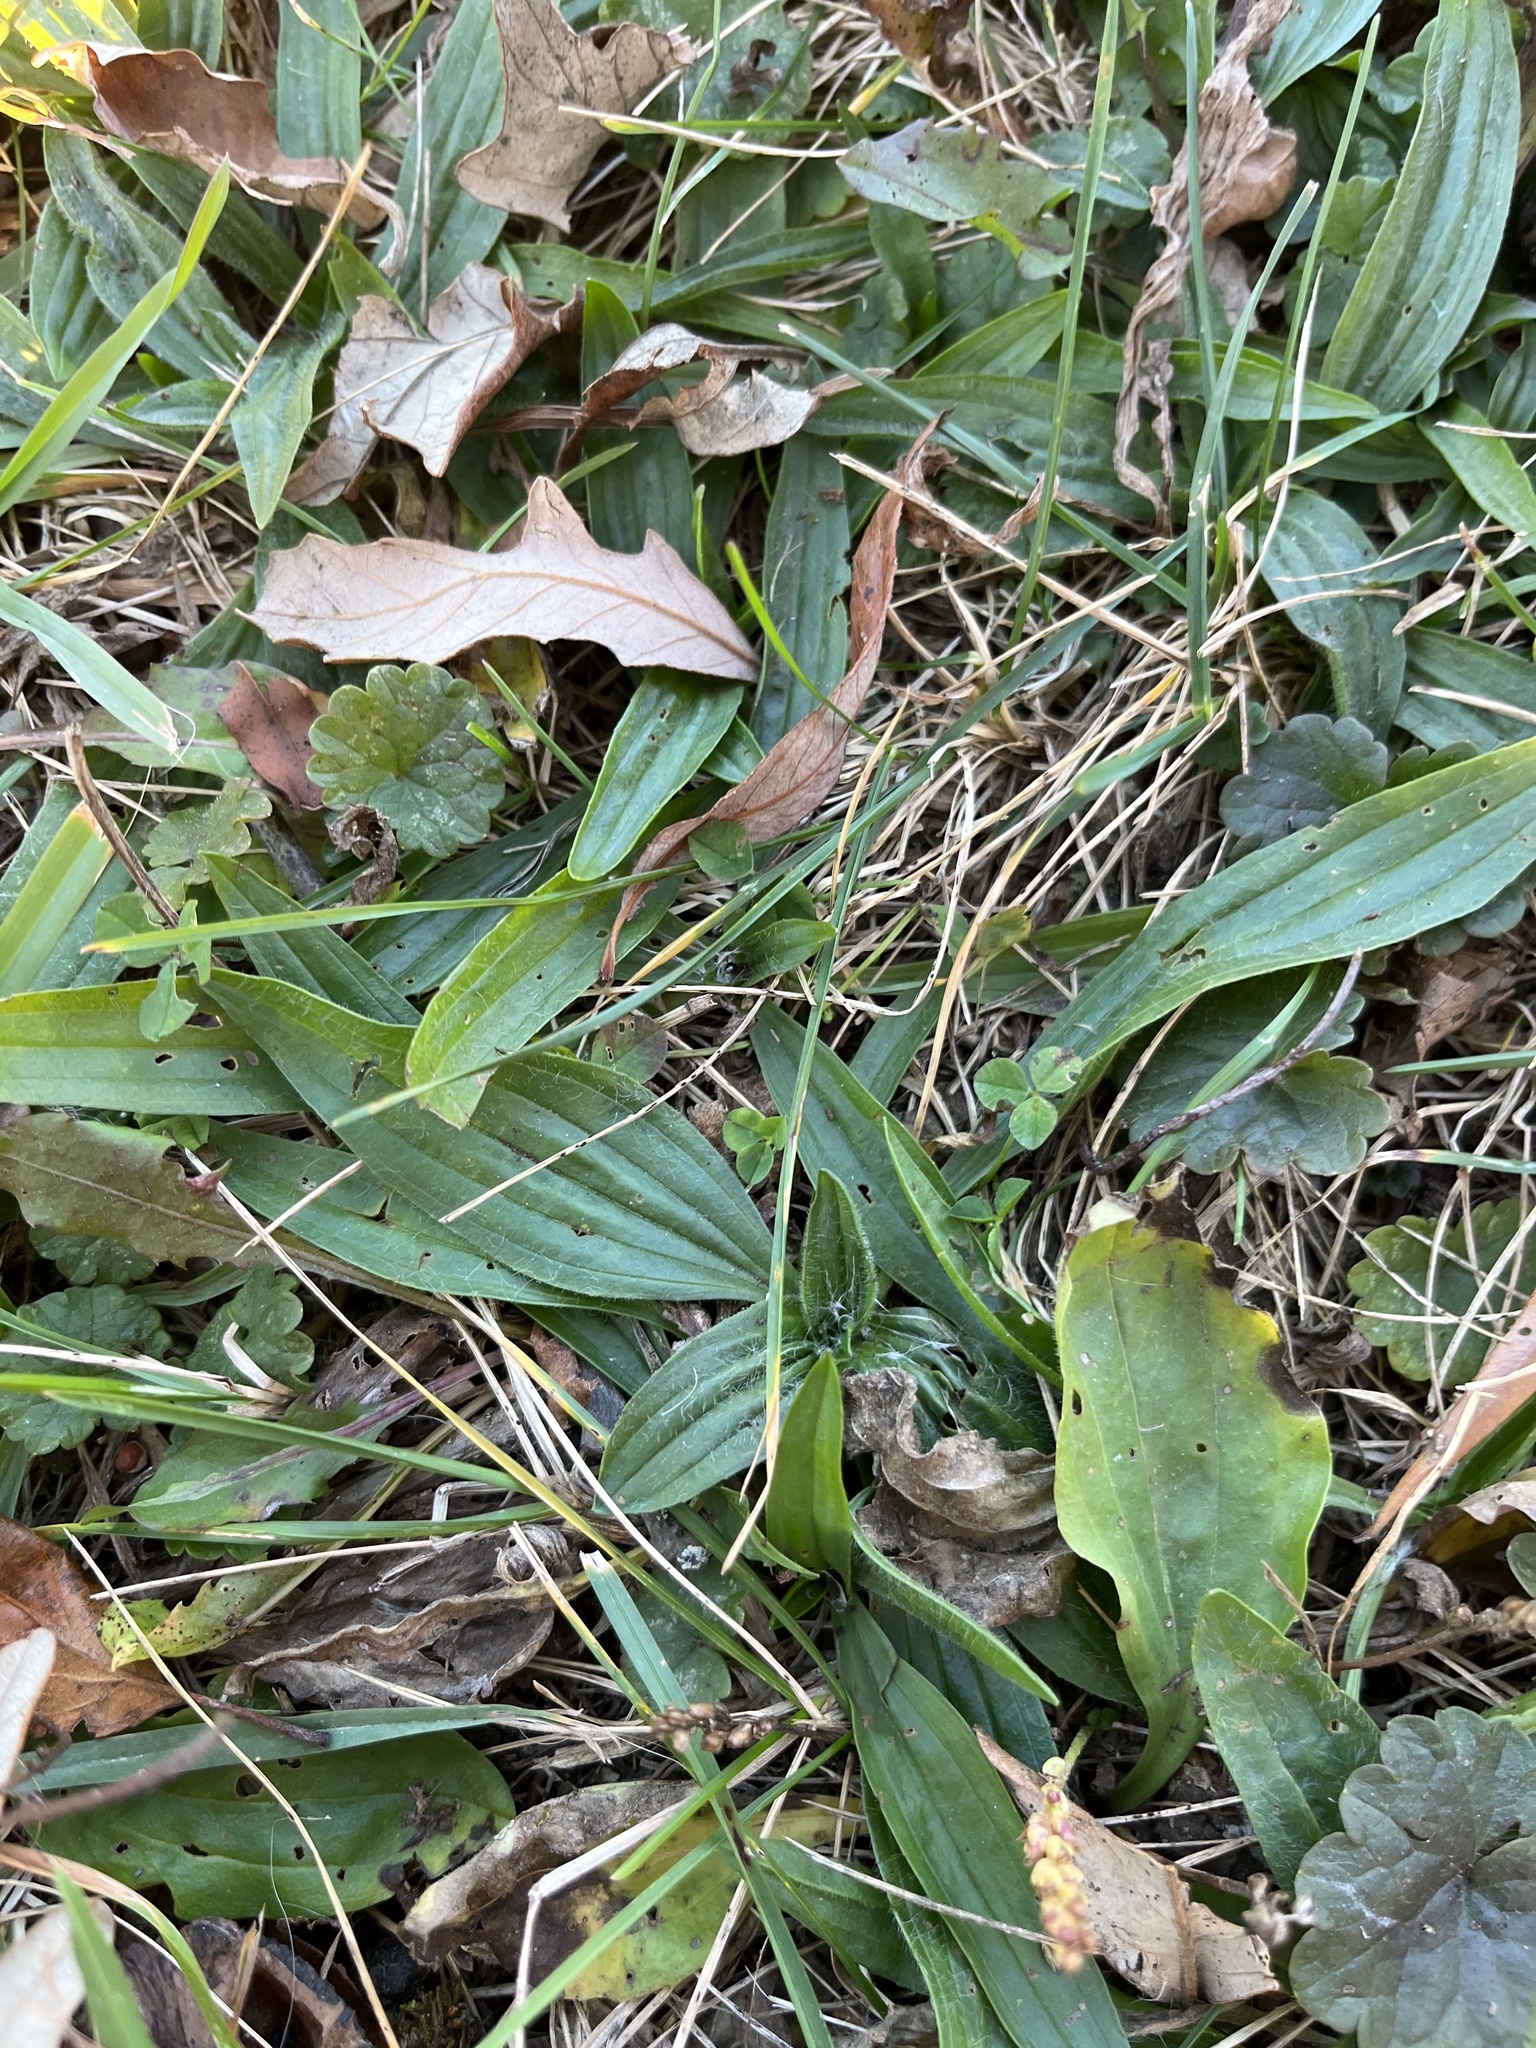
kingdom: Plantae
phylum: Tracheophyta
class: Magnoliopsida
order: Lamiales
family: Plantaginaceae
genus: Plantago
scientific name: Plantago lanceolata
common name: Ribwort plantain
